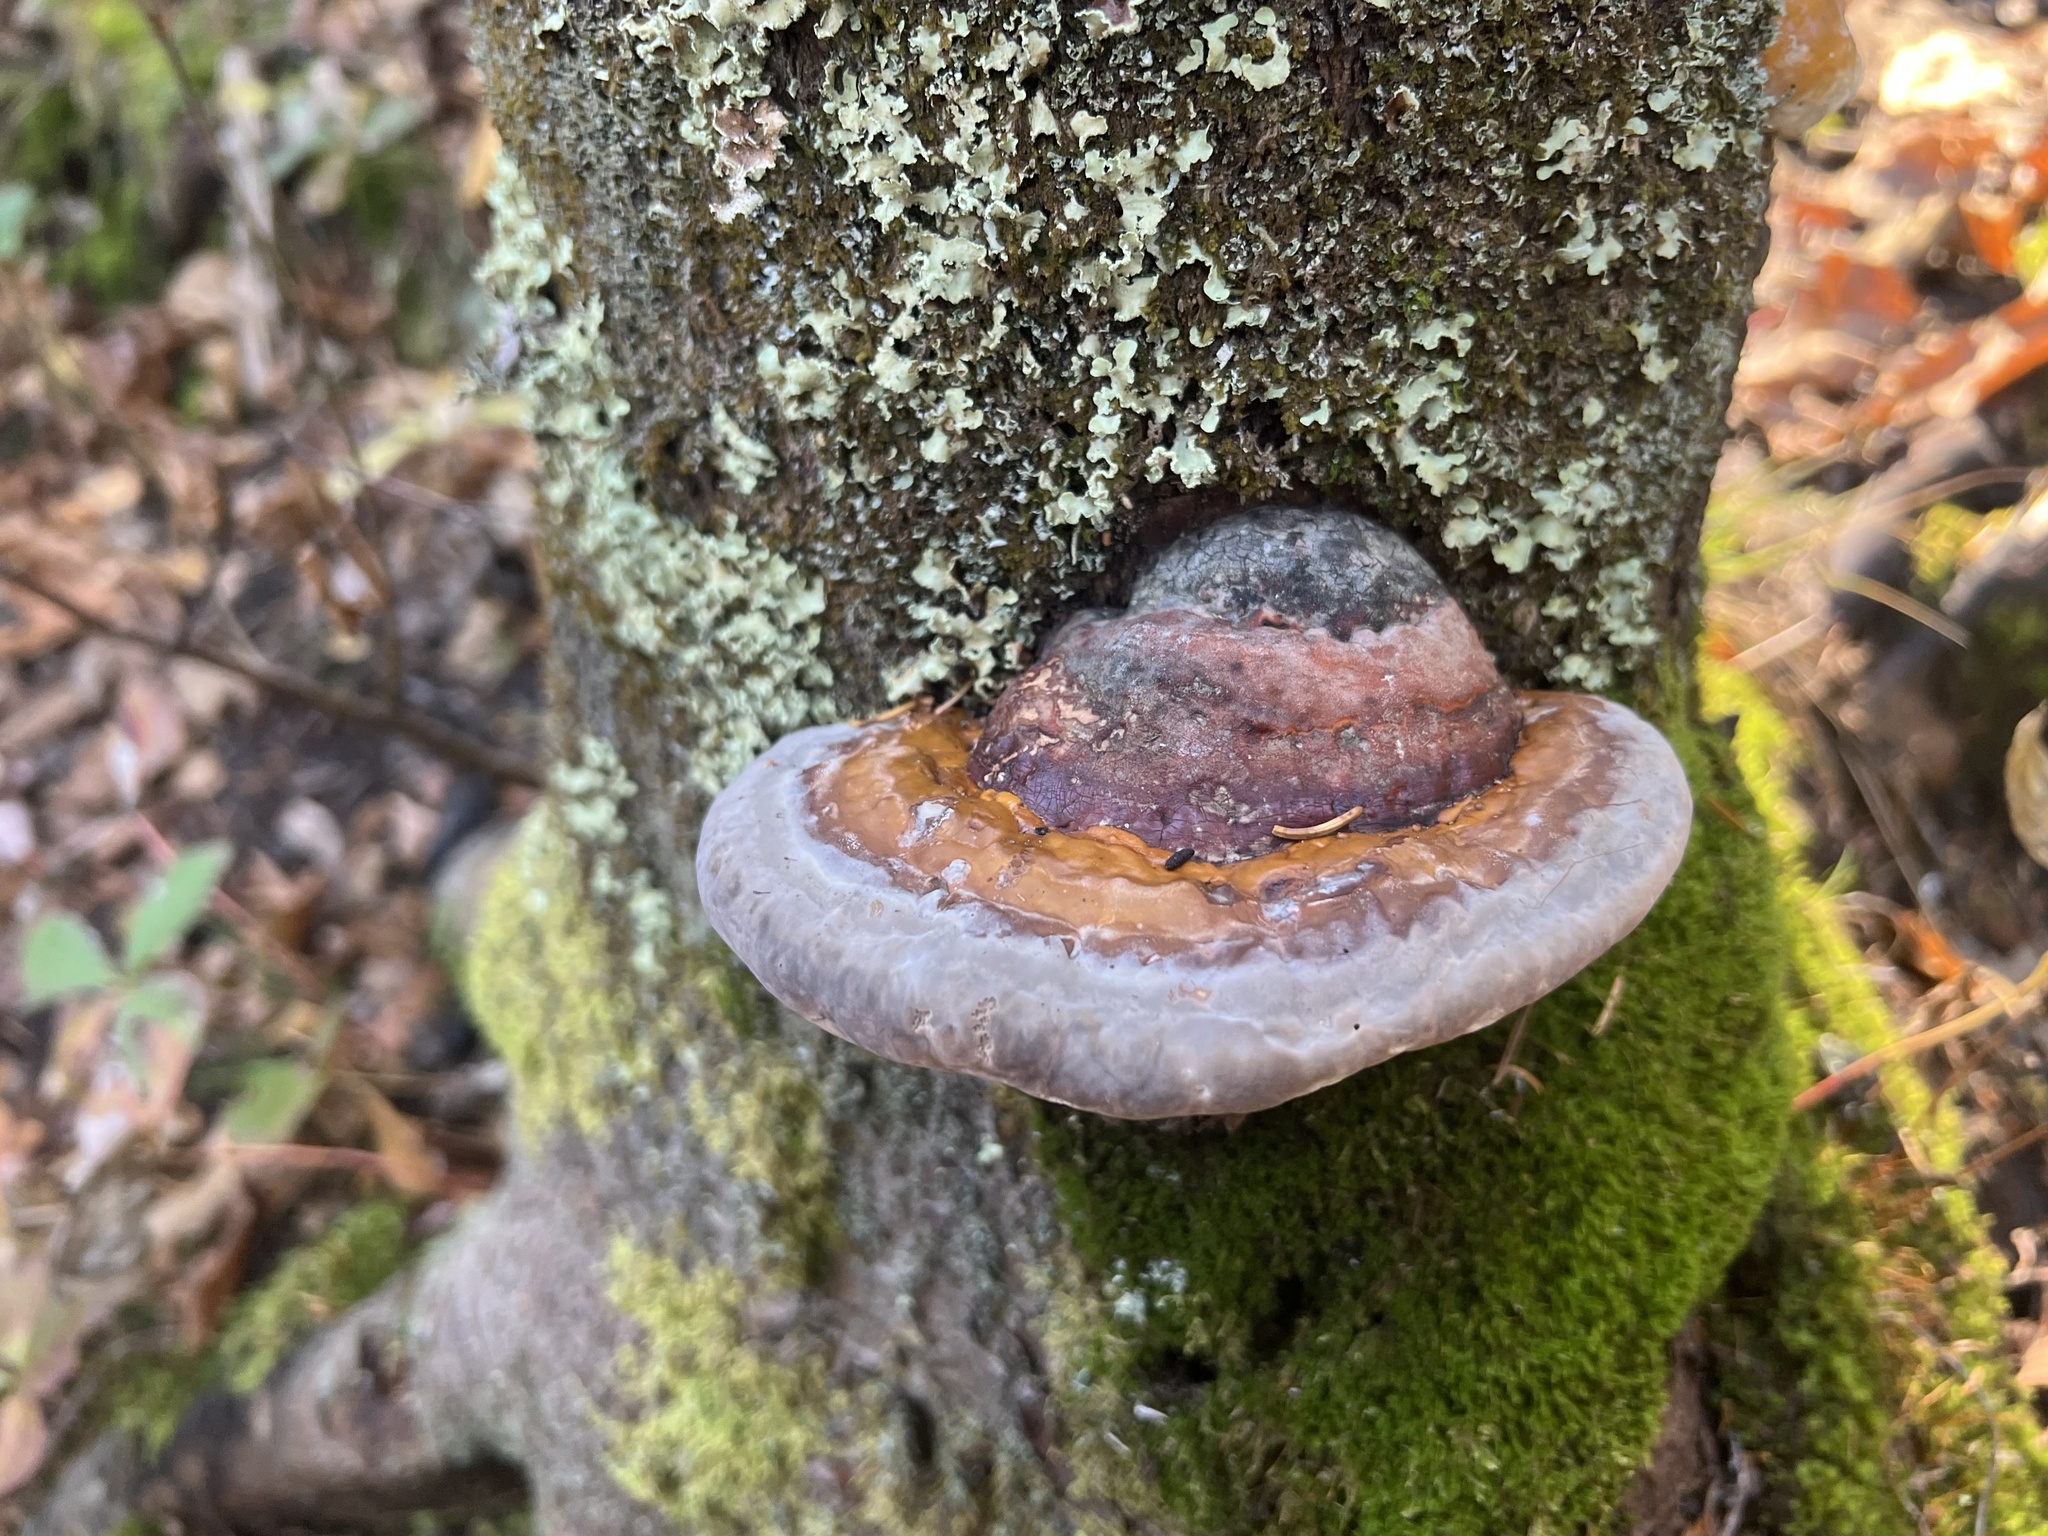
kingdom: Fungi
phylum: Basidiomycota
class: Agaricomycetes
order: Polyporales
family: Fomitopsidaceae
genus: Fomitopsis
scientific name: Fomitopsis mounceae
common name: Northern red belt
